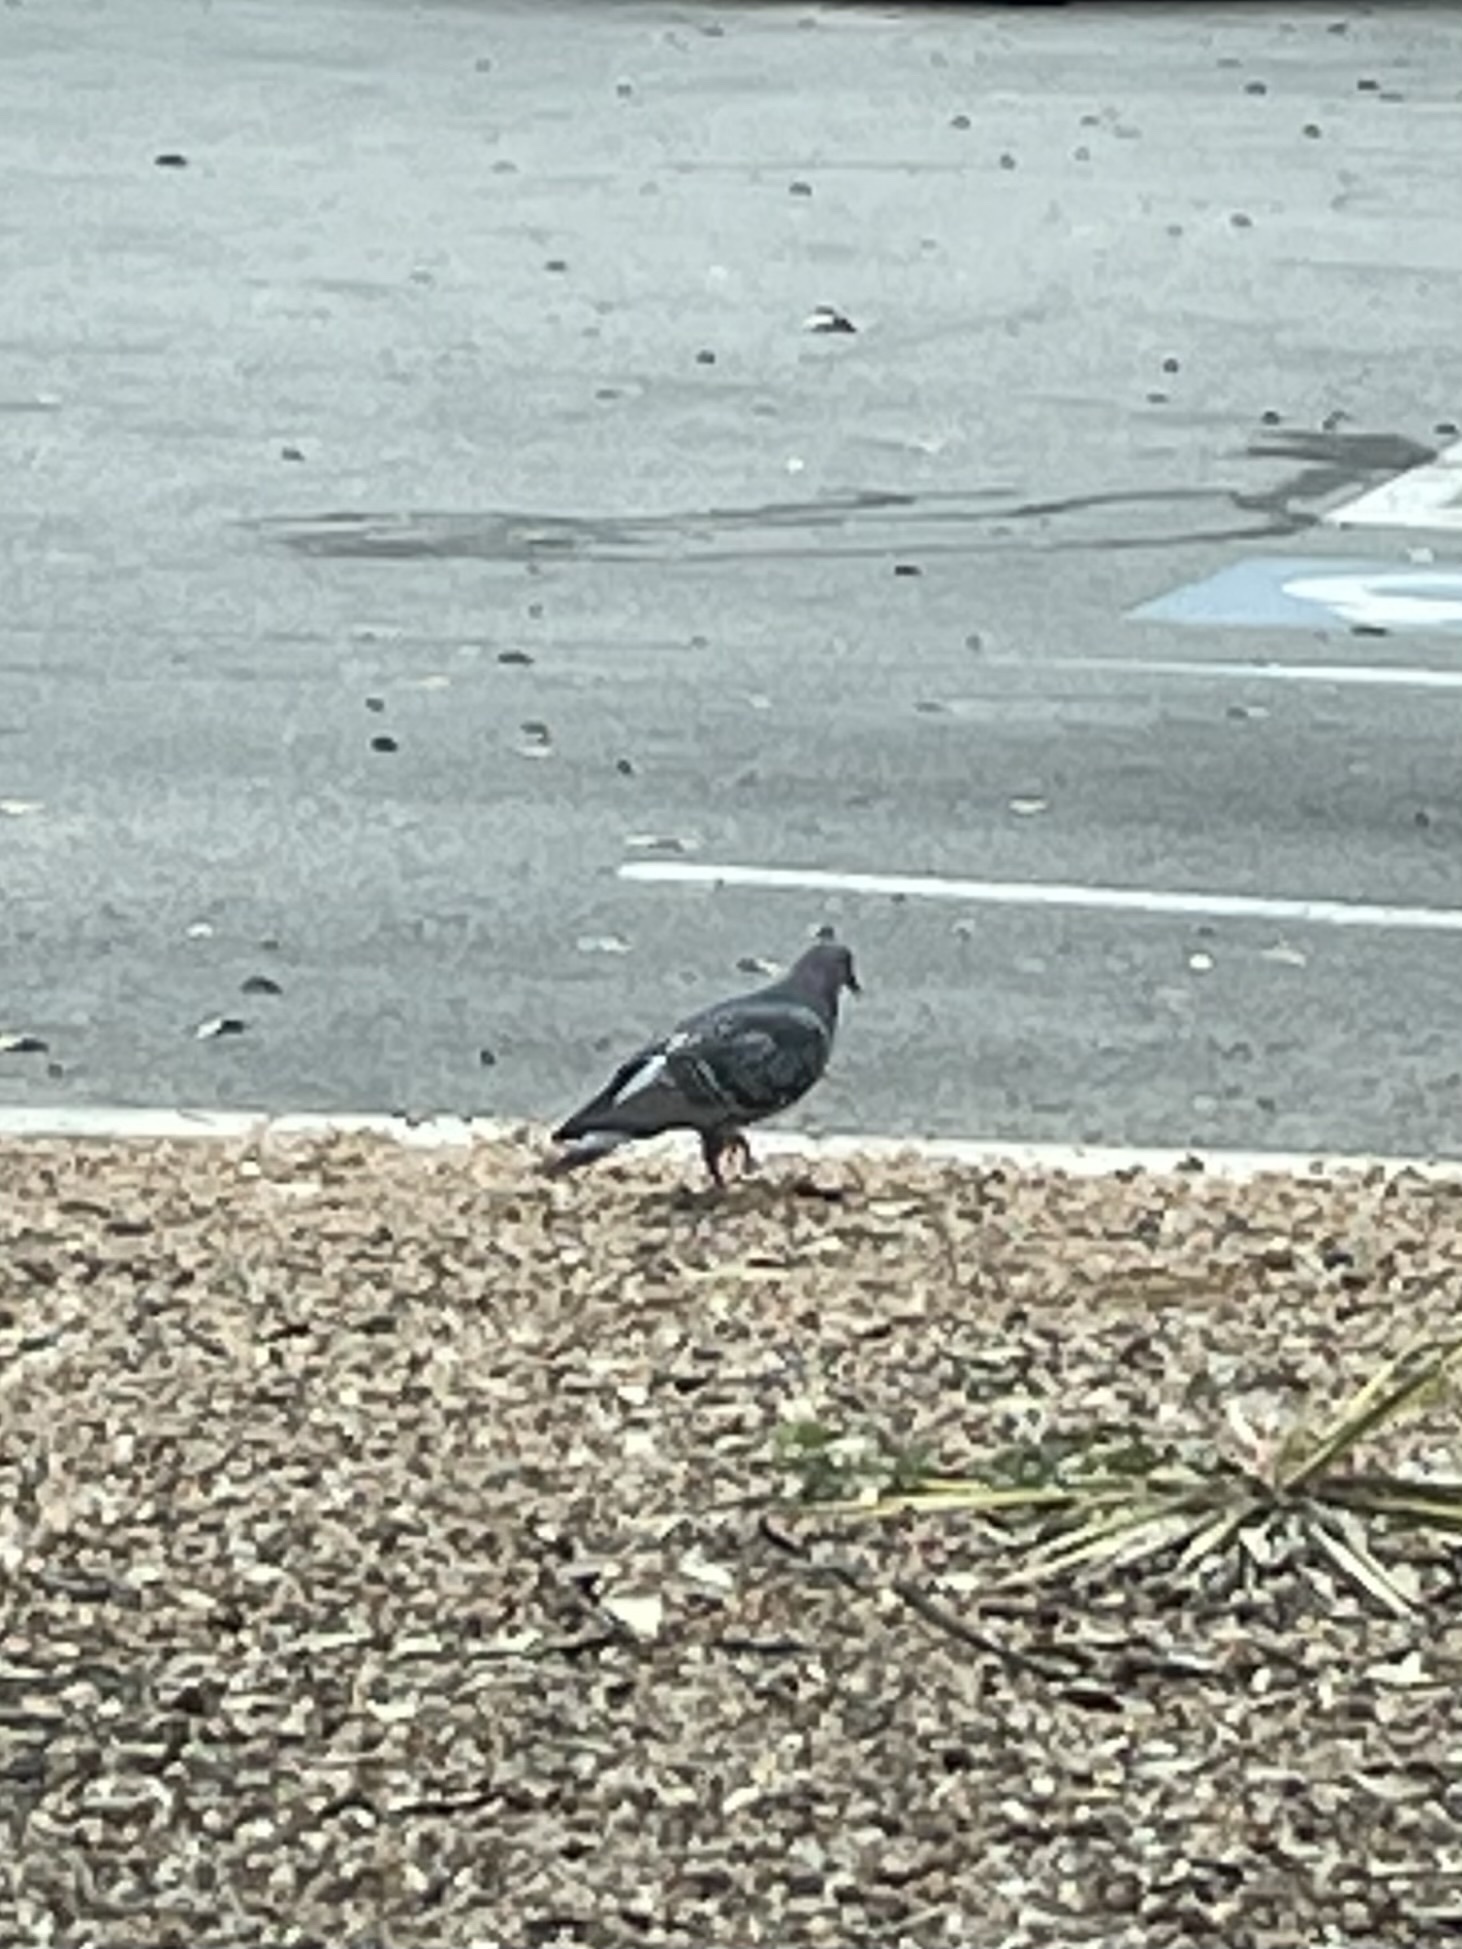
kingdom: Animalia
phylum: Chordata
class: Aves
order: Columbiformes
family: Columbidae
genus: Columba
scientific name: Columba livia
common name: Rock pigeon
